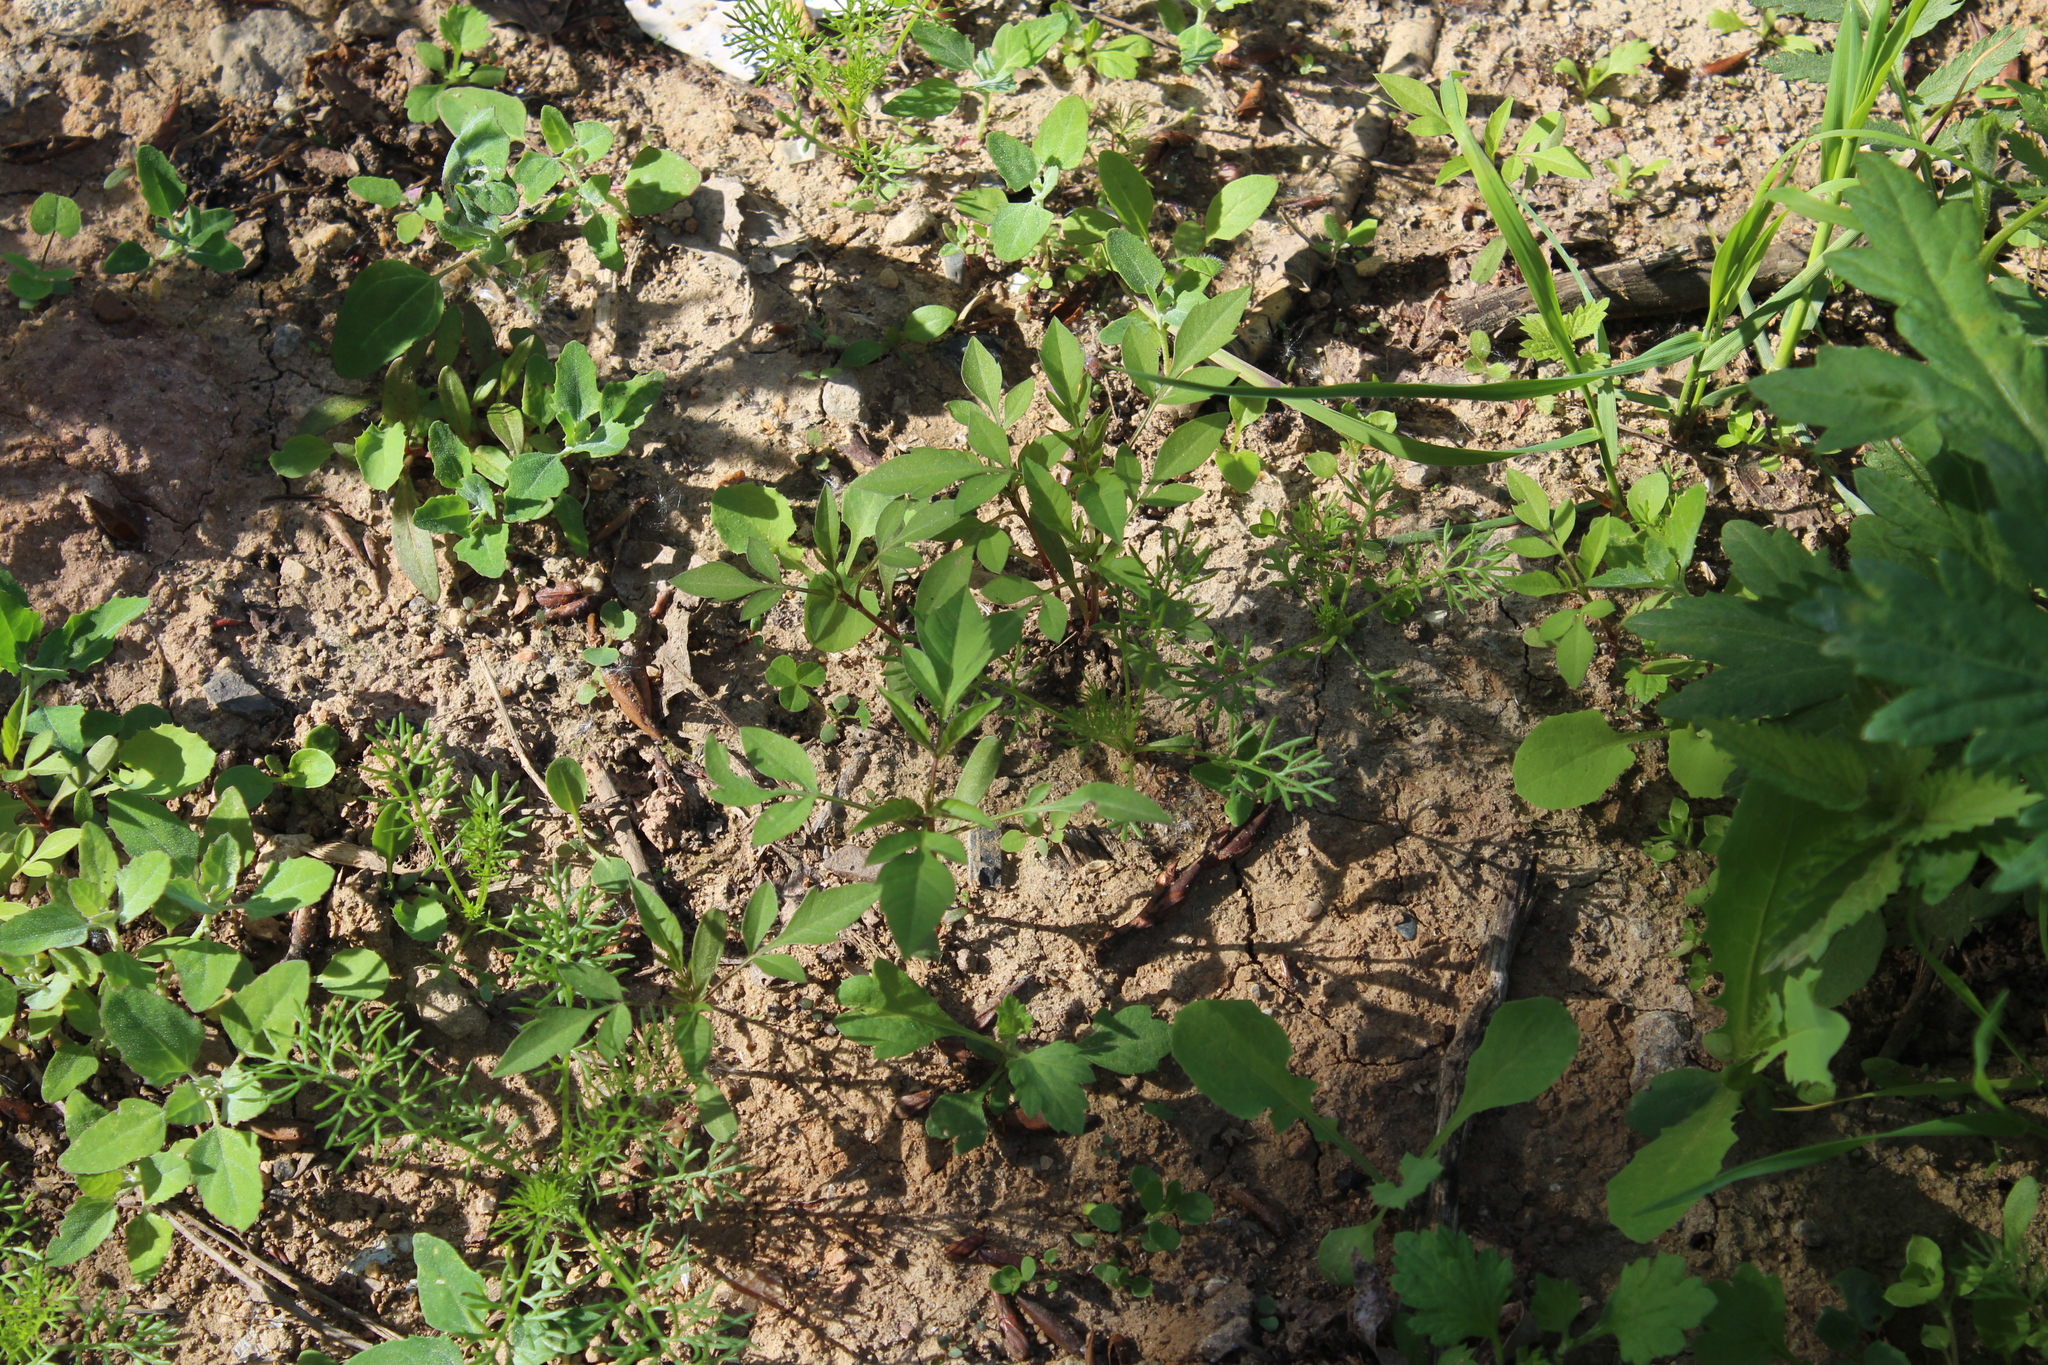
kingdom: Plantae
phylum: Tracheophyta
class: Magnoliopsida
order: Asterales
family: Asteraceae
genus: Bidens
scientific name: Bidens frondosa
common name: Beggarticks
